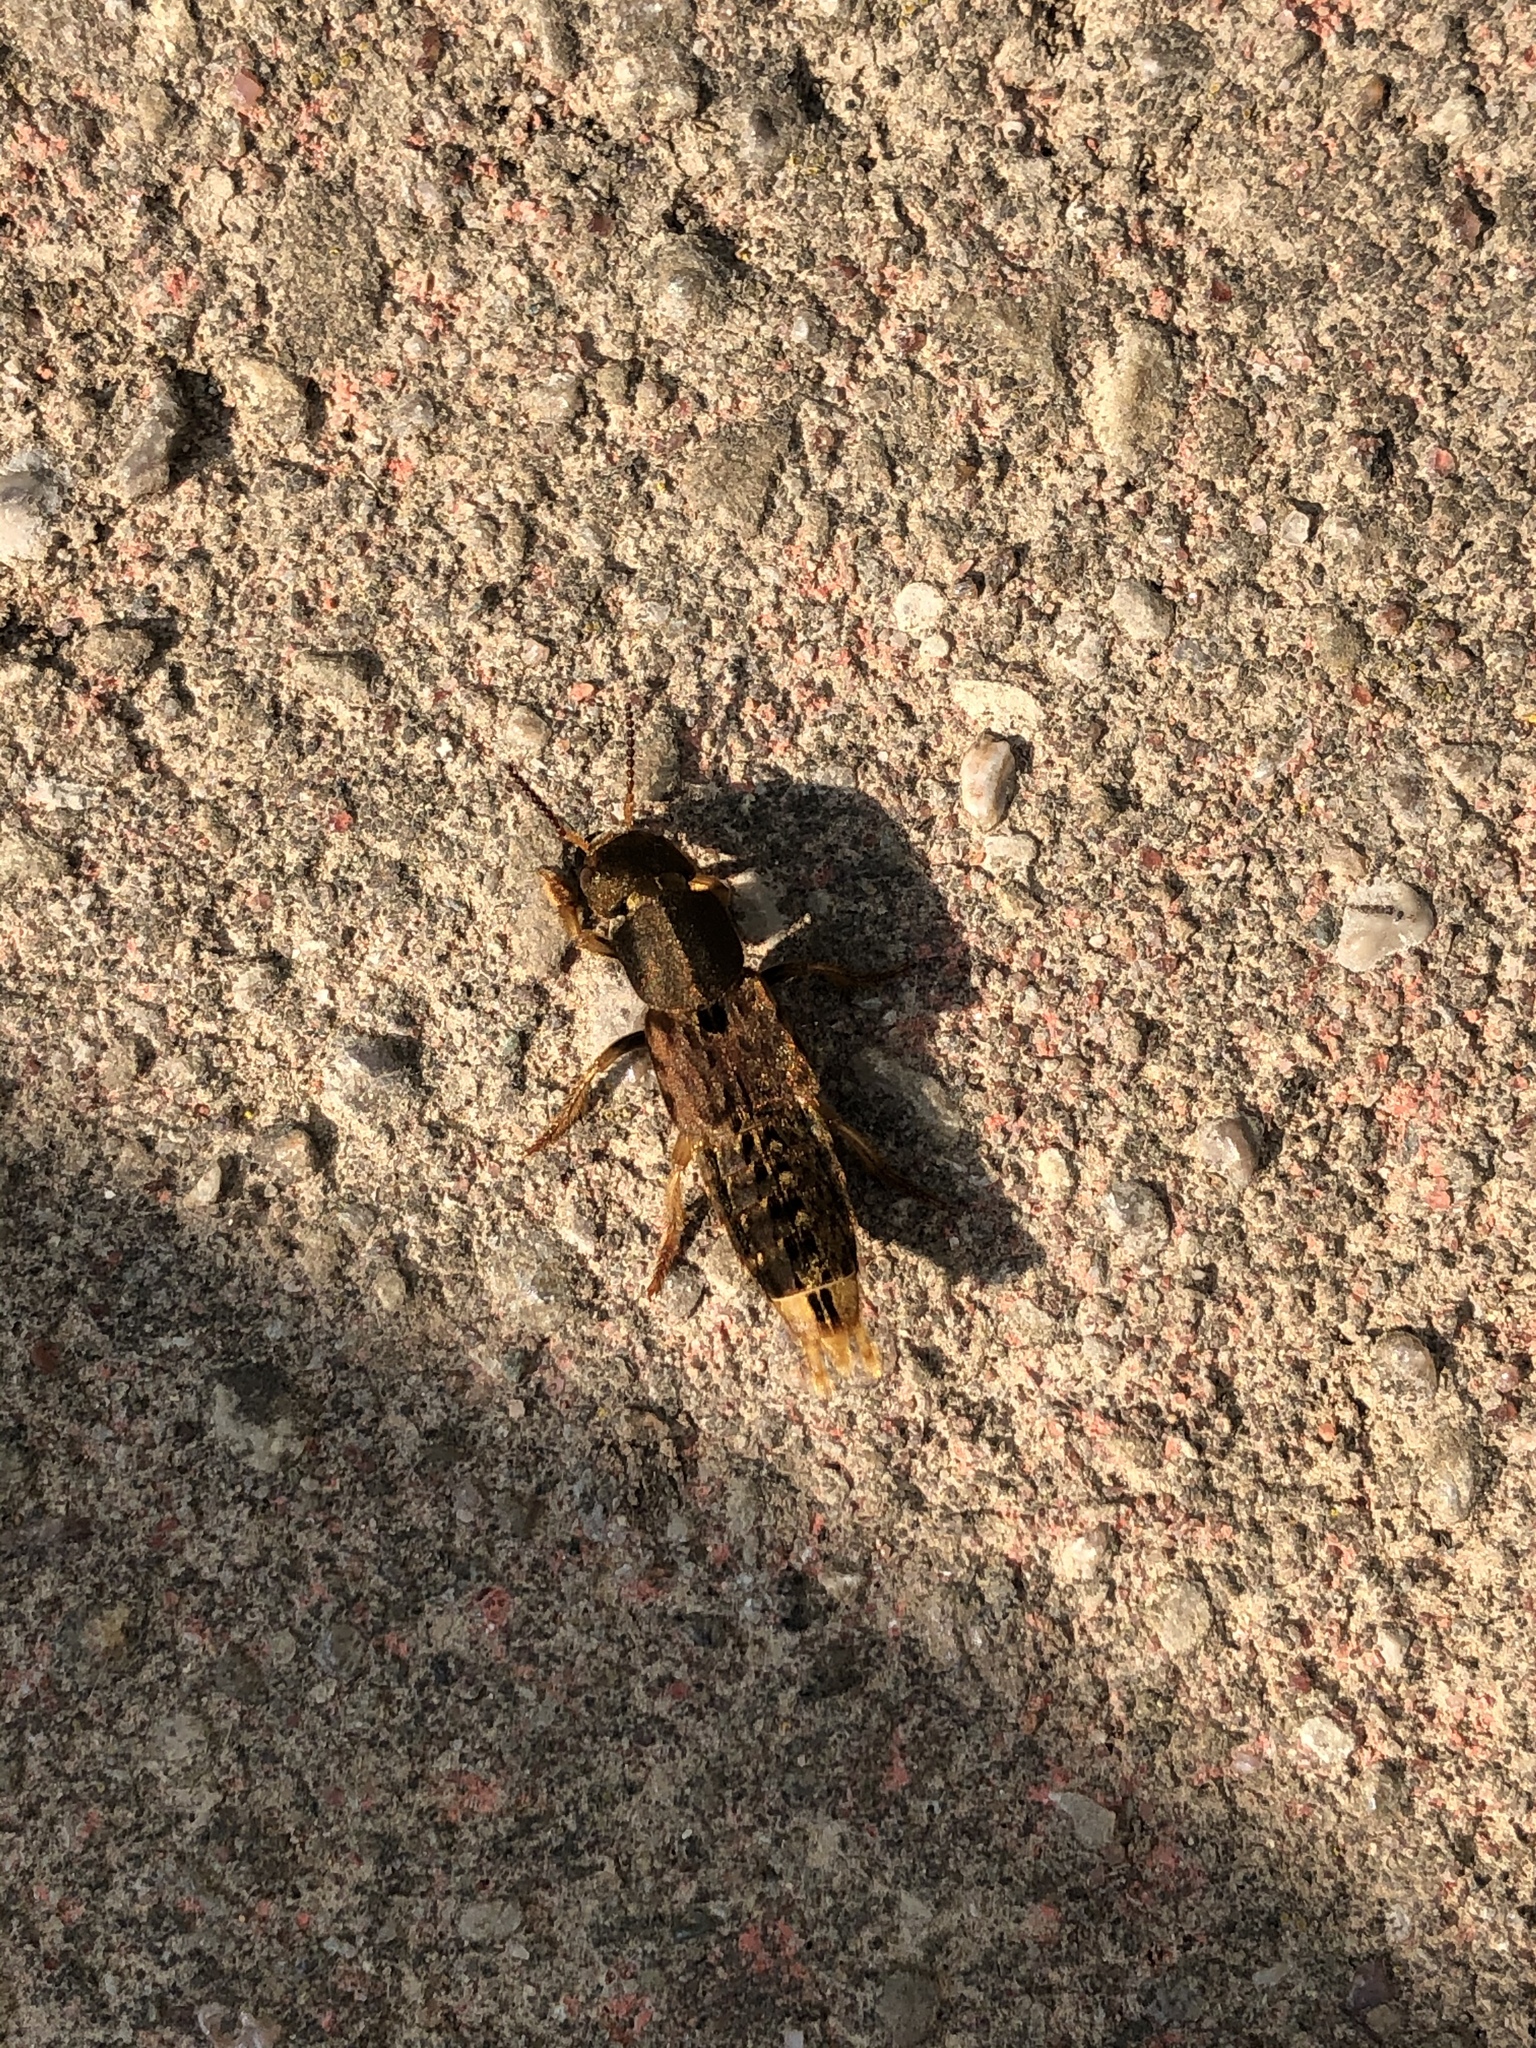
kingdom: Animalia
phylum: Arthropoda
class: Insecta
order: Coleoptera
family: Staphylinidae
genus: Platydracus
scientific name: Platydracus maculosus
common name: Brown rove beetle
